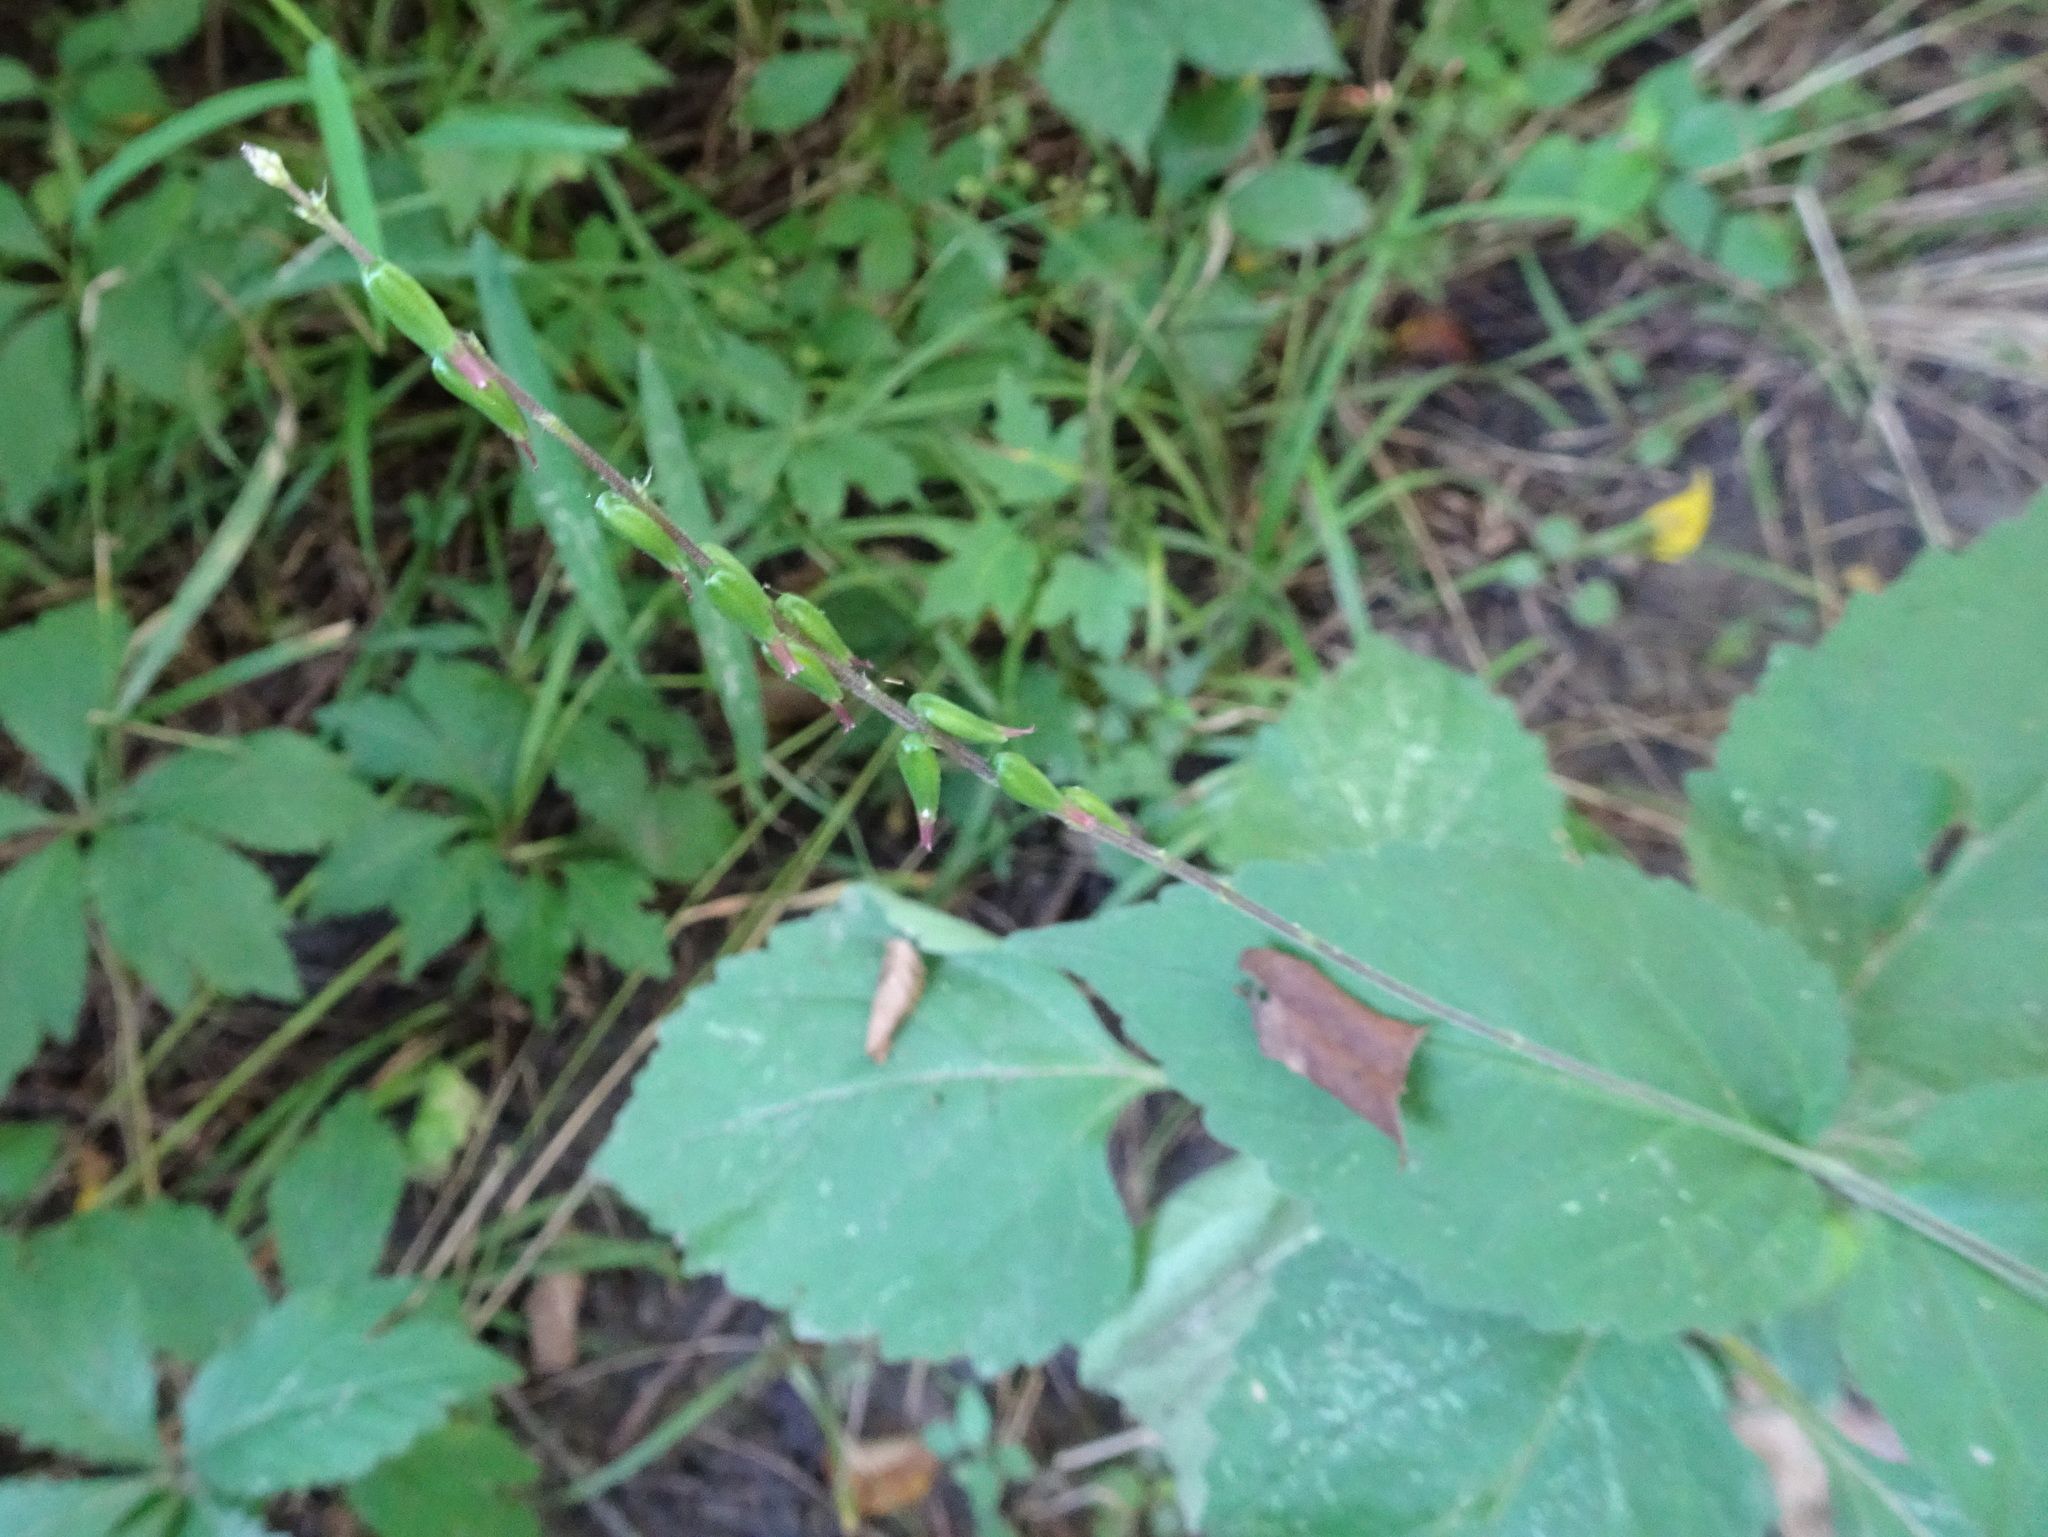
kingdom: Plantae
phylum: Tracheophyta
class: Magnoliopsida
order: Lamiales
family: Phrymaceae
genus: Phryma
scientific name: Phryma leptostachya
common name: American lopseed
